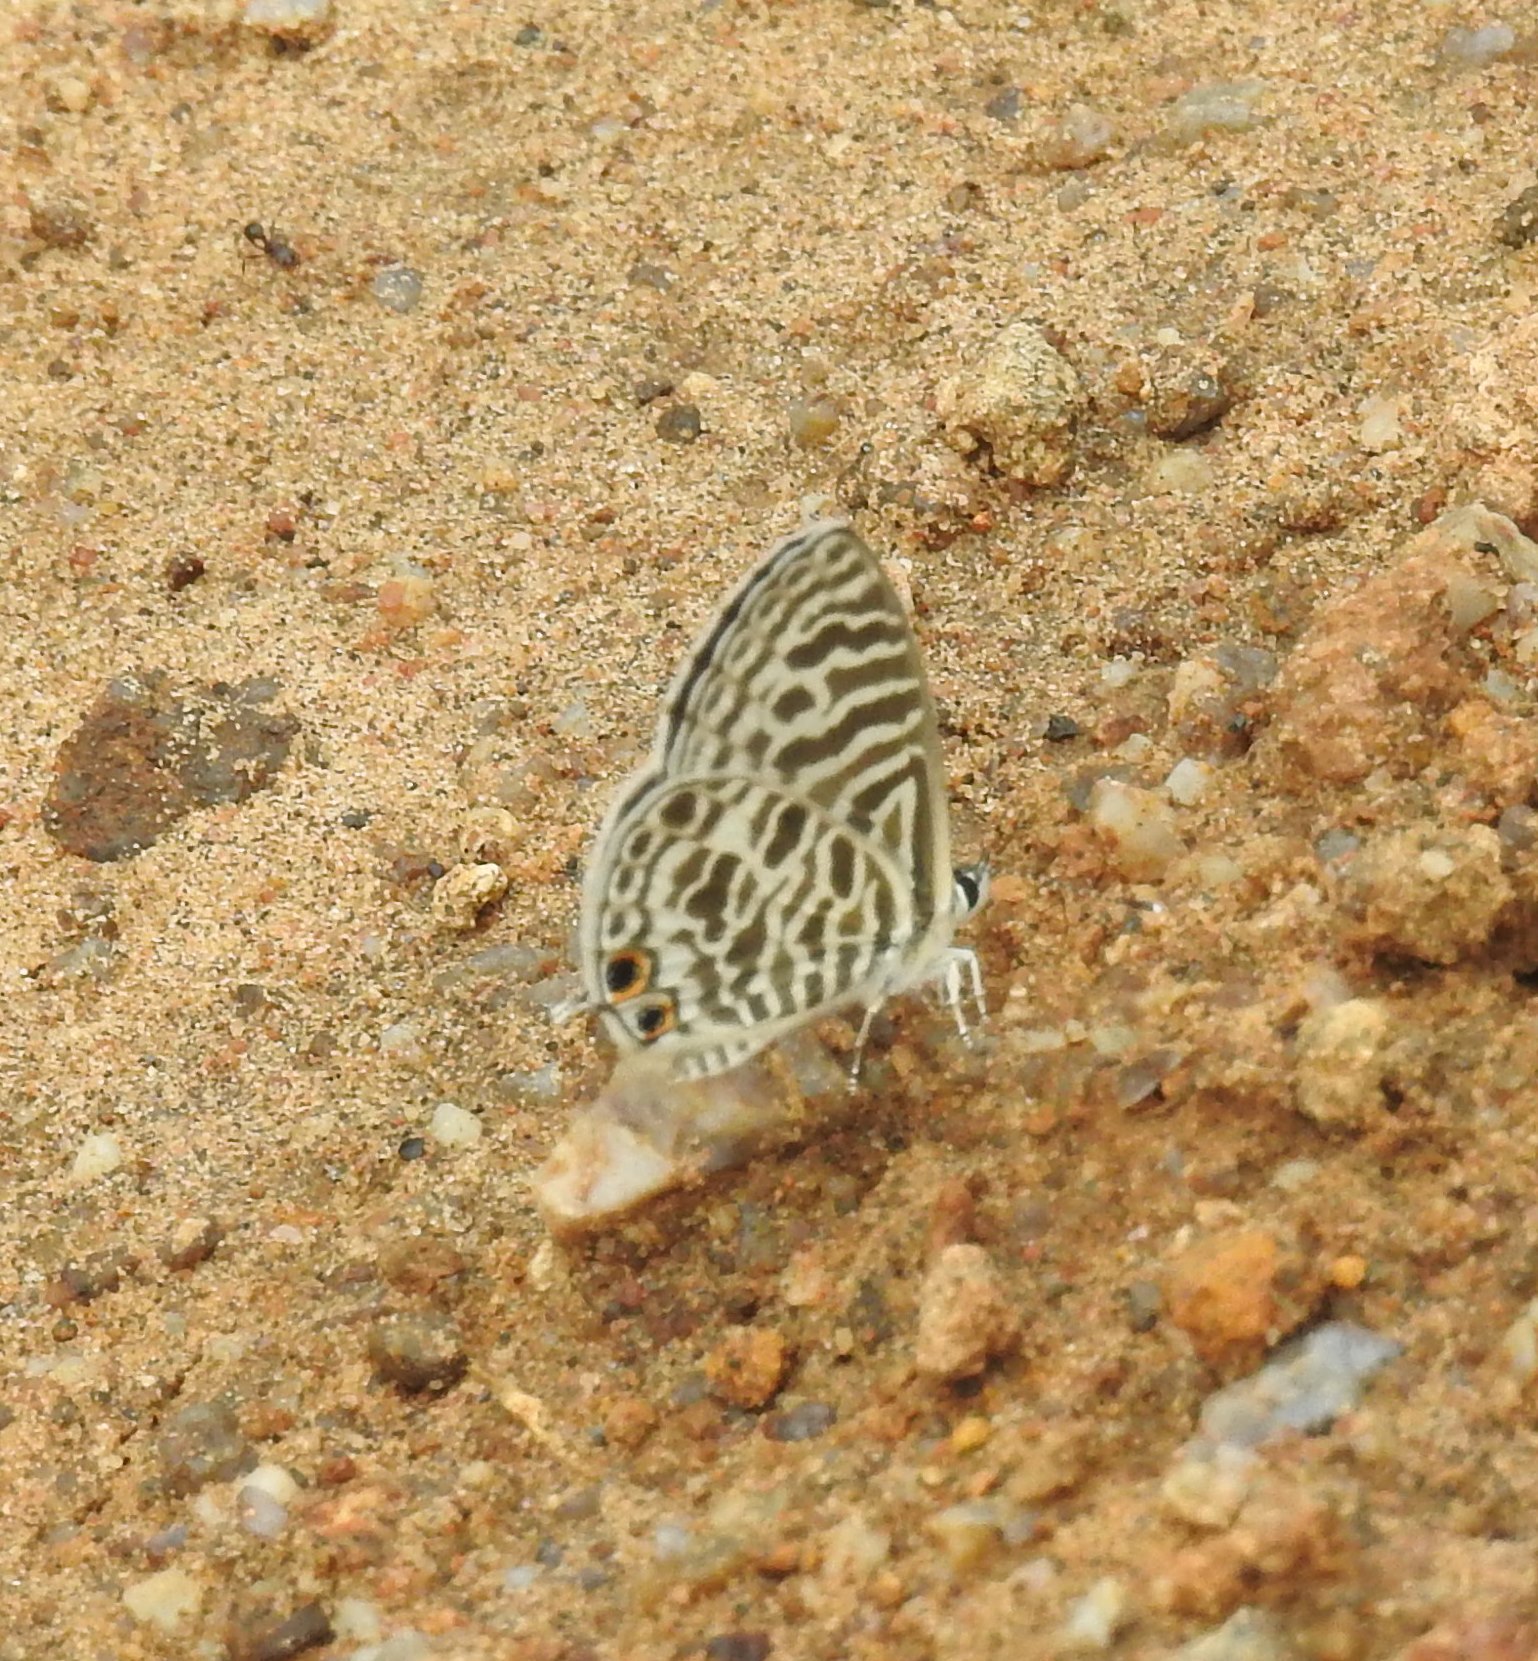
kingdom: Animalia
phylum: Arthropoda
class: Insecta
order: Lepidoptera
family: Lycaenidae
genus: Leptotes
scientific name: Leptotes plinius
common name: Zebra blue
